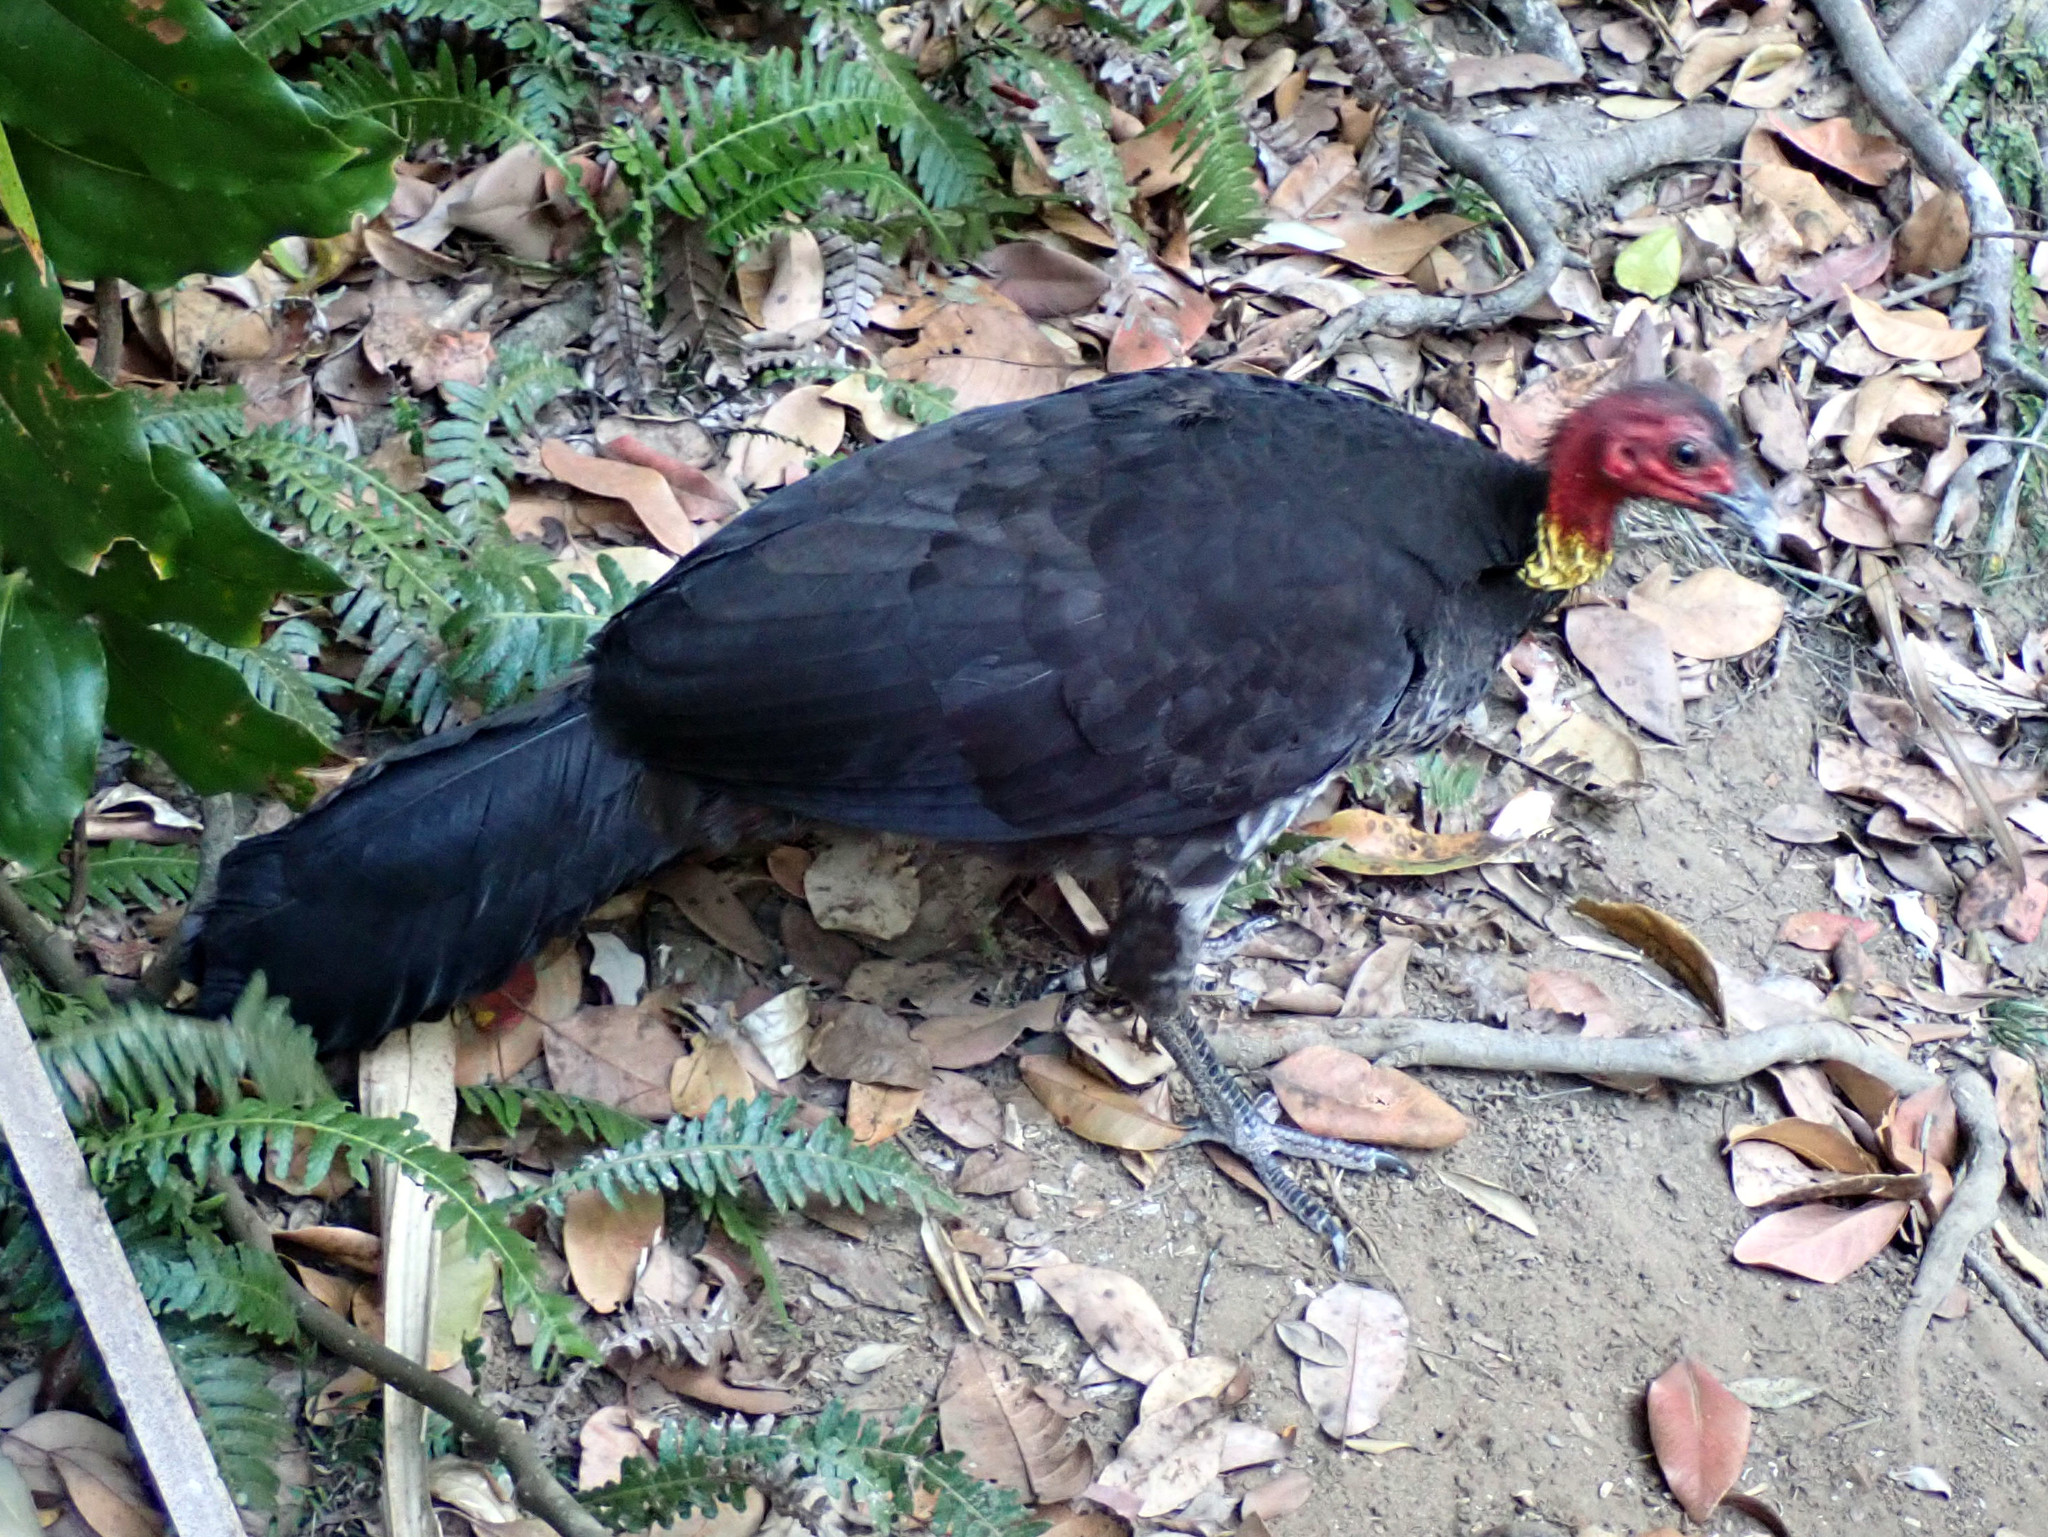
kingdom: Animalia
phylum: Chordata
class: Aves
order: Galliformes
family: Megapodiidae
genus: Alectura
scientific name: Alectura lathami
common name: Australian brushturkey
